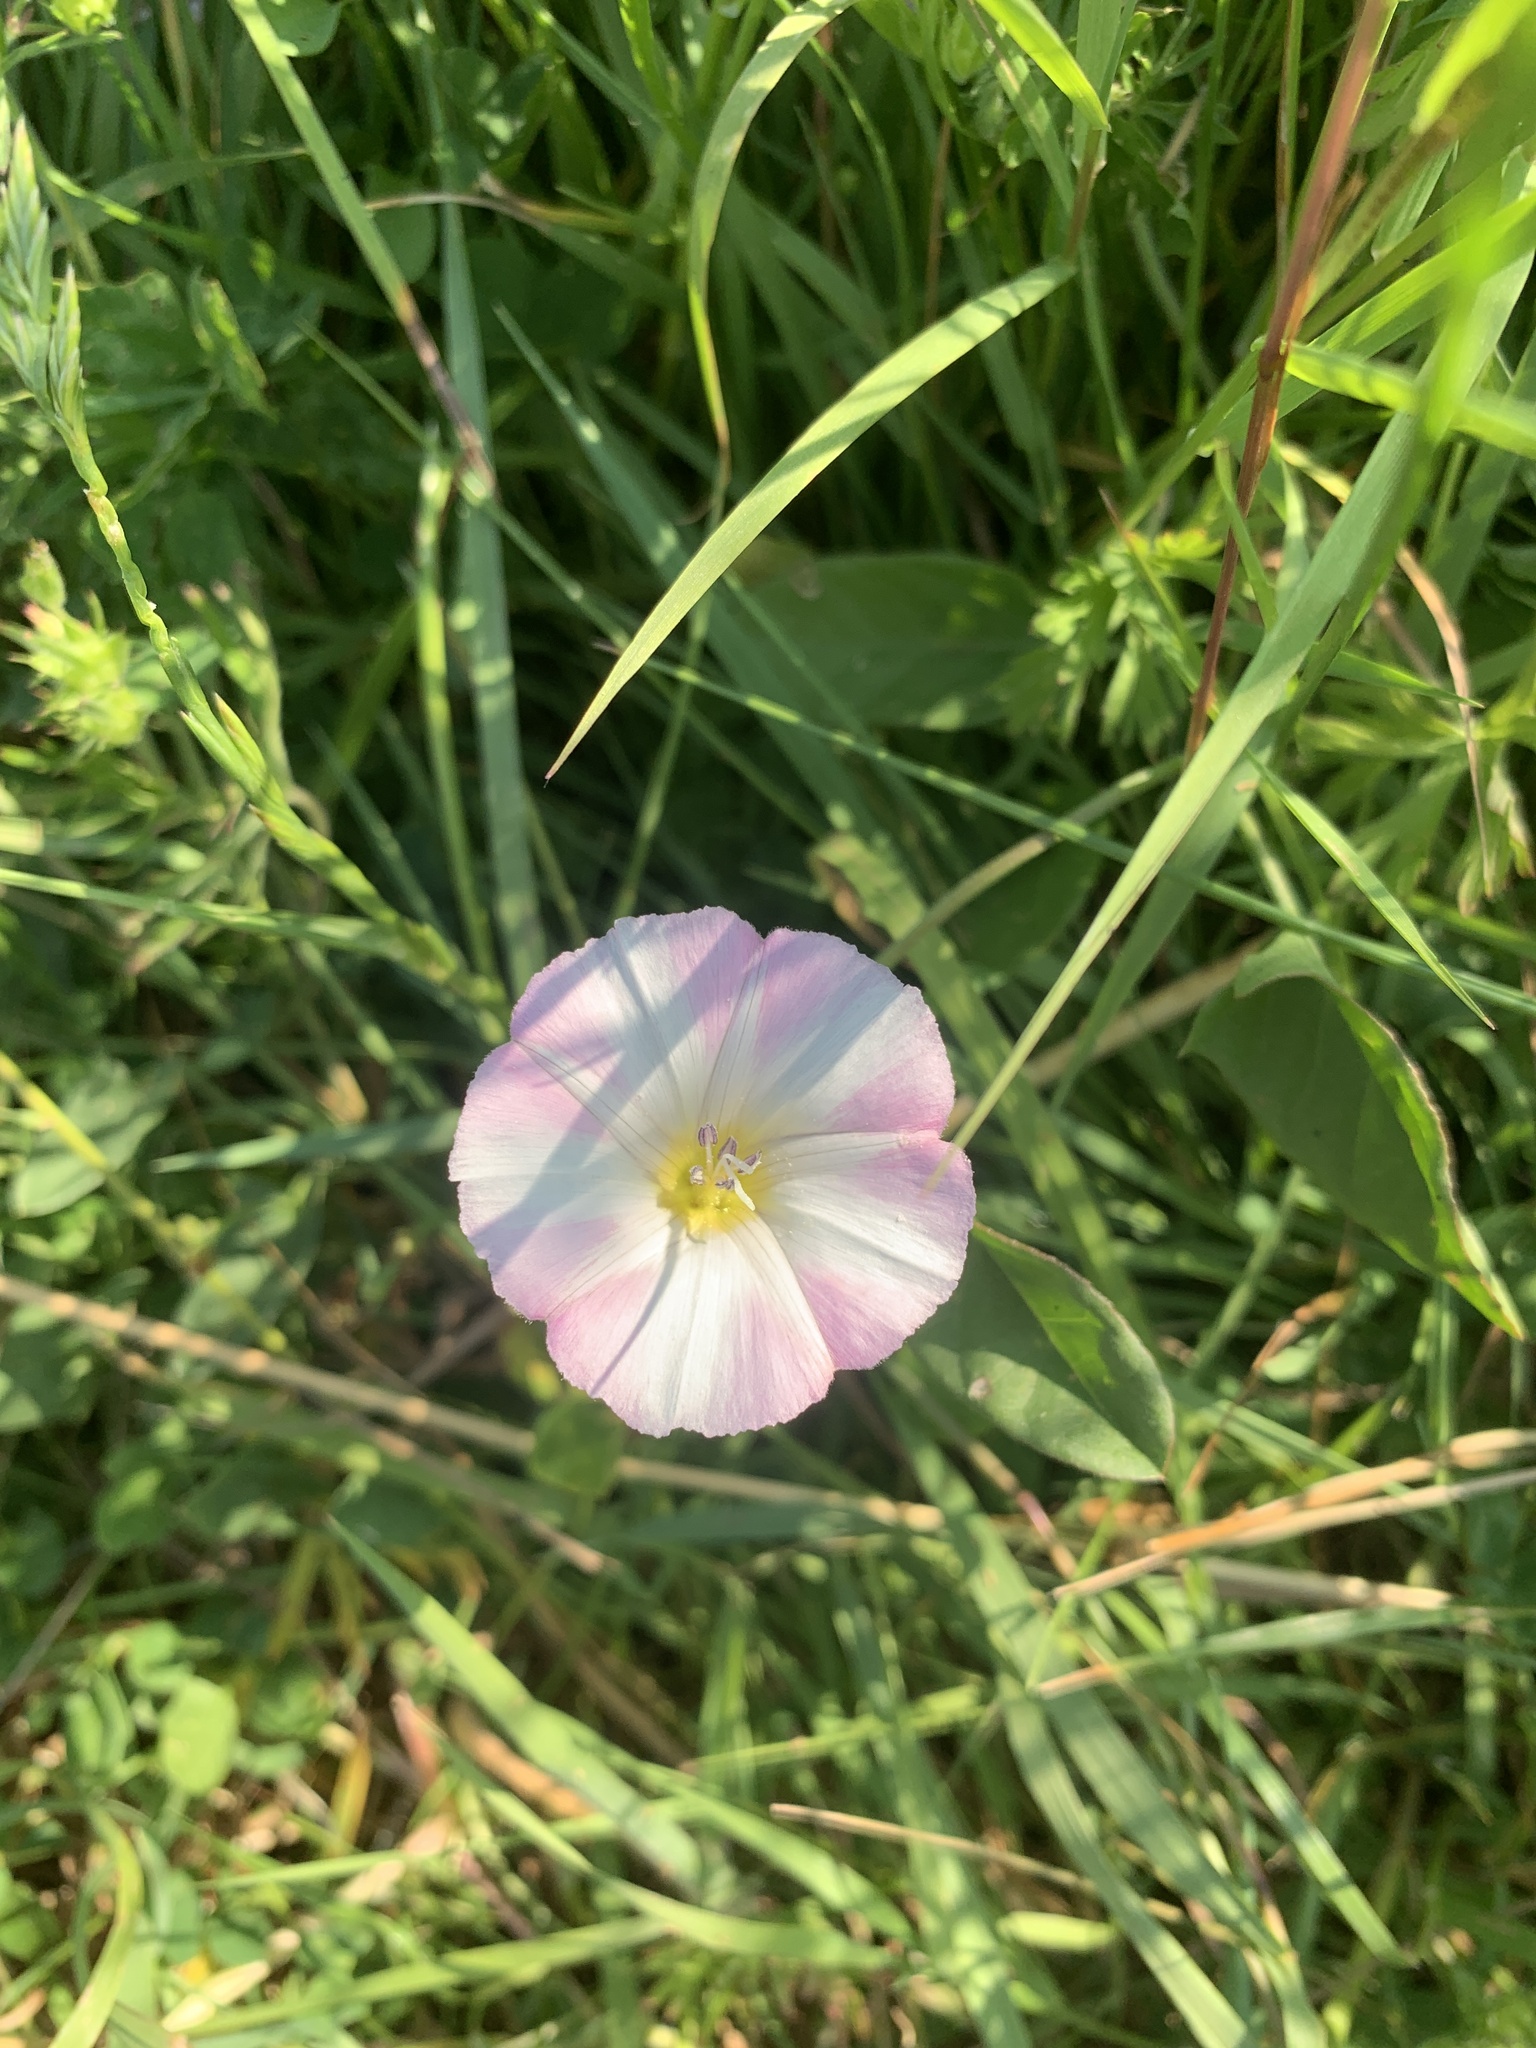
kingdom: Plantae
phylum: Tracheophyta
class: Magnoliopsida
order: Solanales
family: Convolvulaceae
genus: Convolvulus
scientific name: Convolvulus arvensis
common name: Field bindweed
